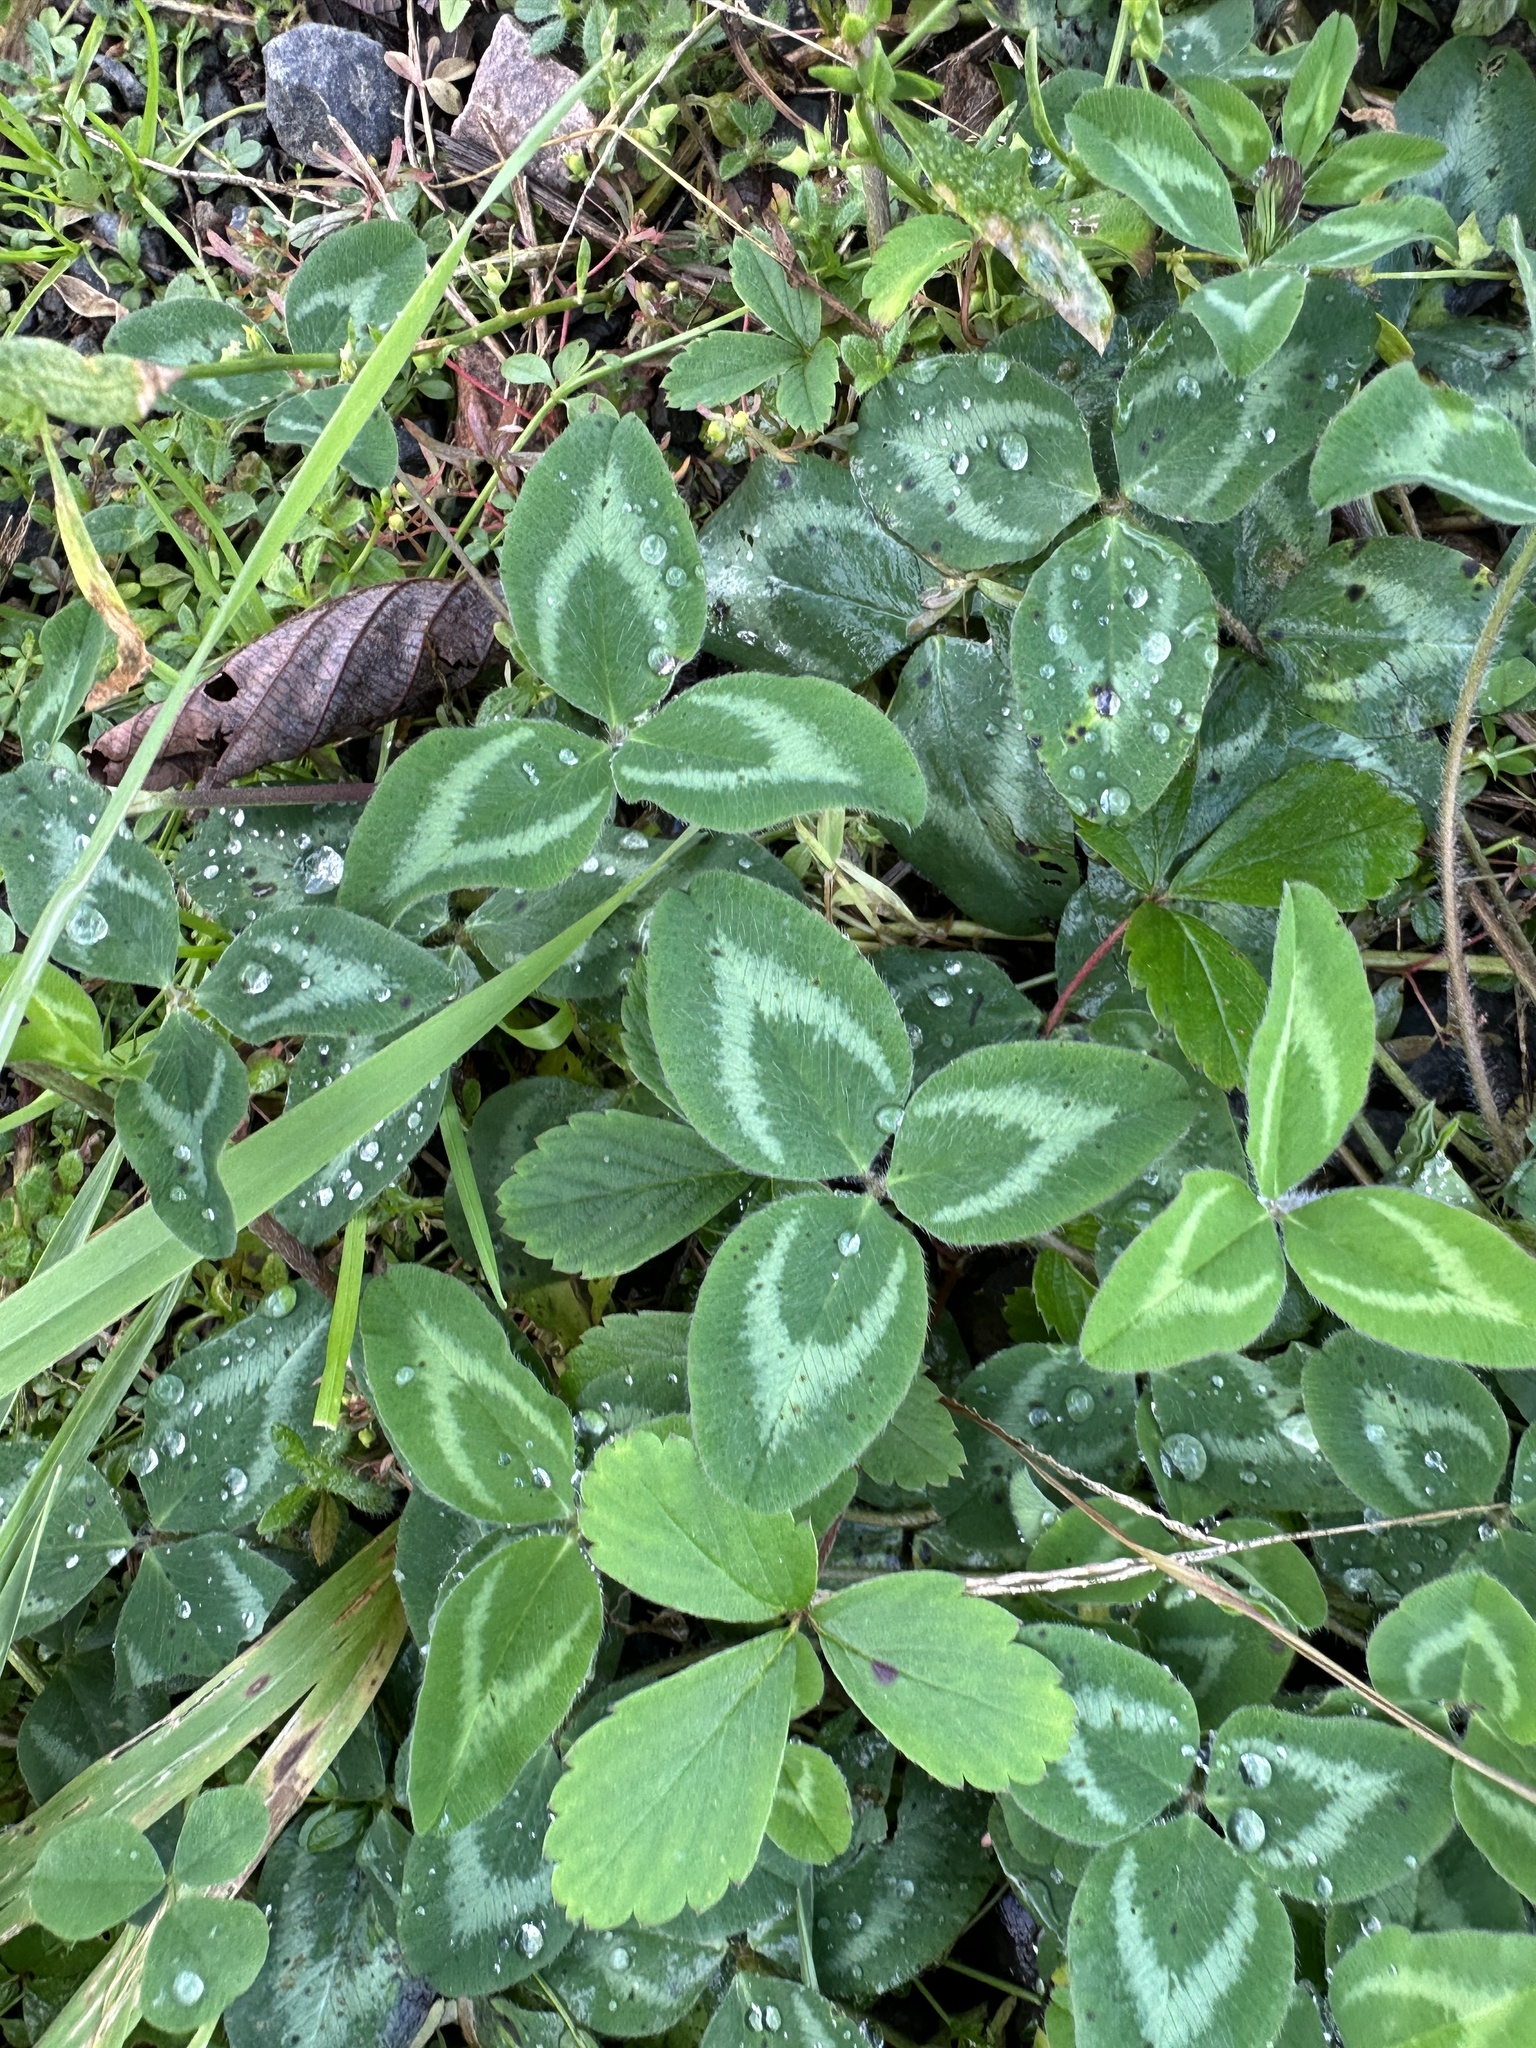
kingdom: Plantae
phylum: Tracheophyta
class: Magnoliopsida
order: Fabales
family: Fabaceae
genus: Trifolium
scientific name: Trifolium pratense
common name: Red clover
